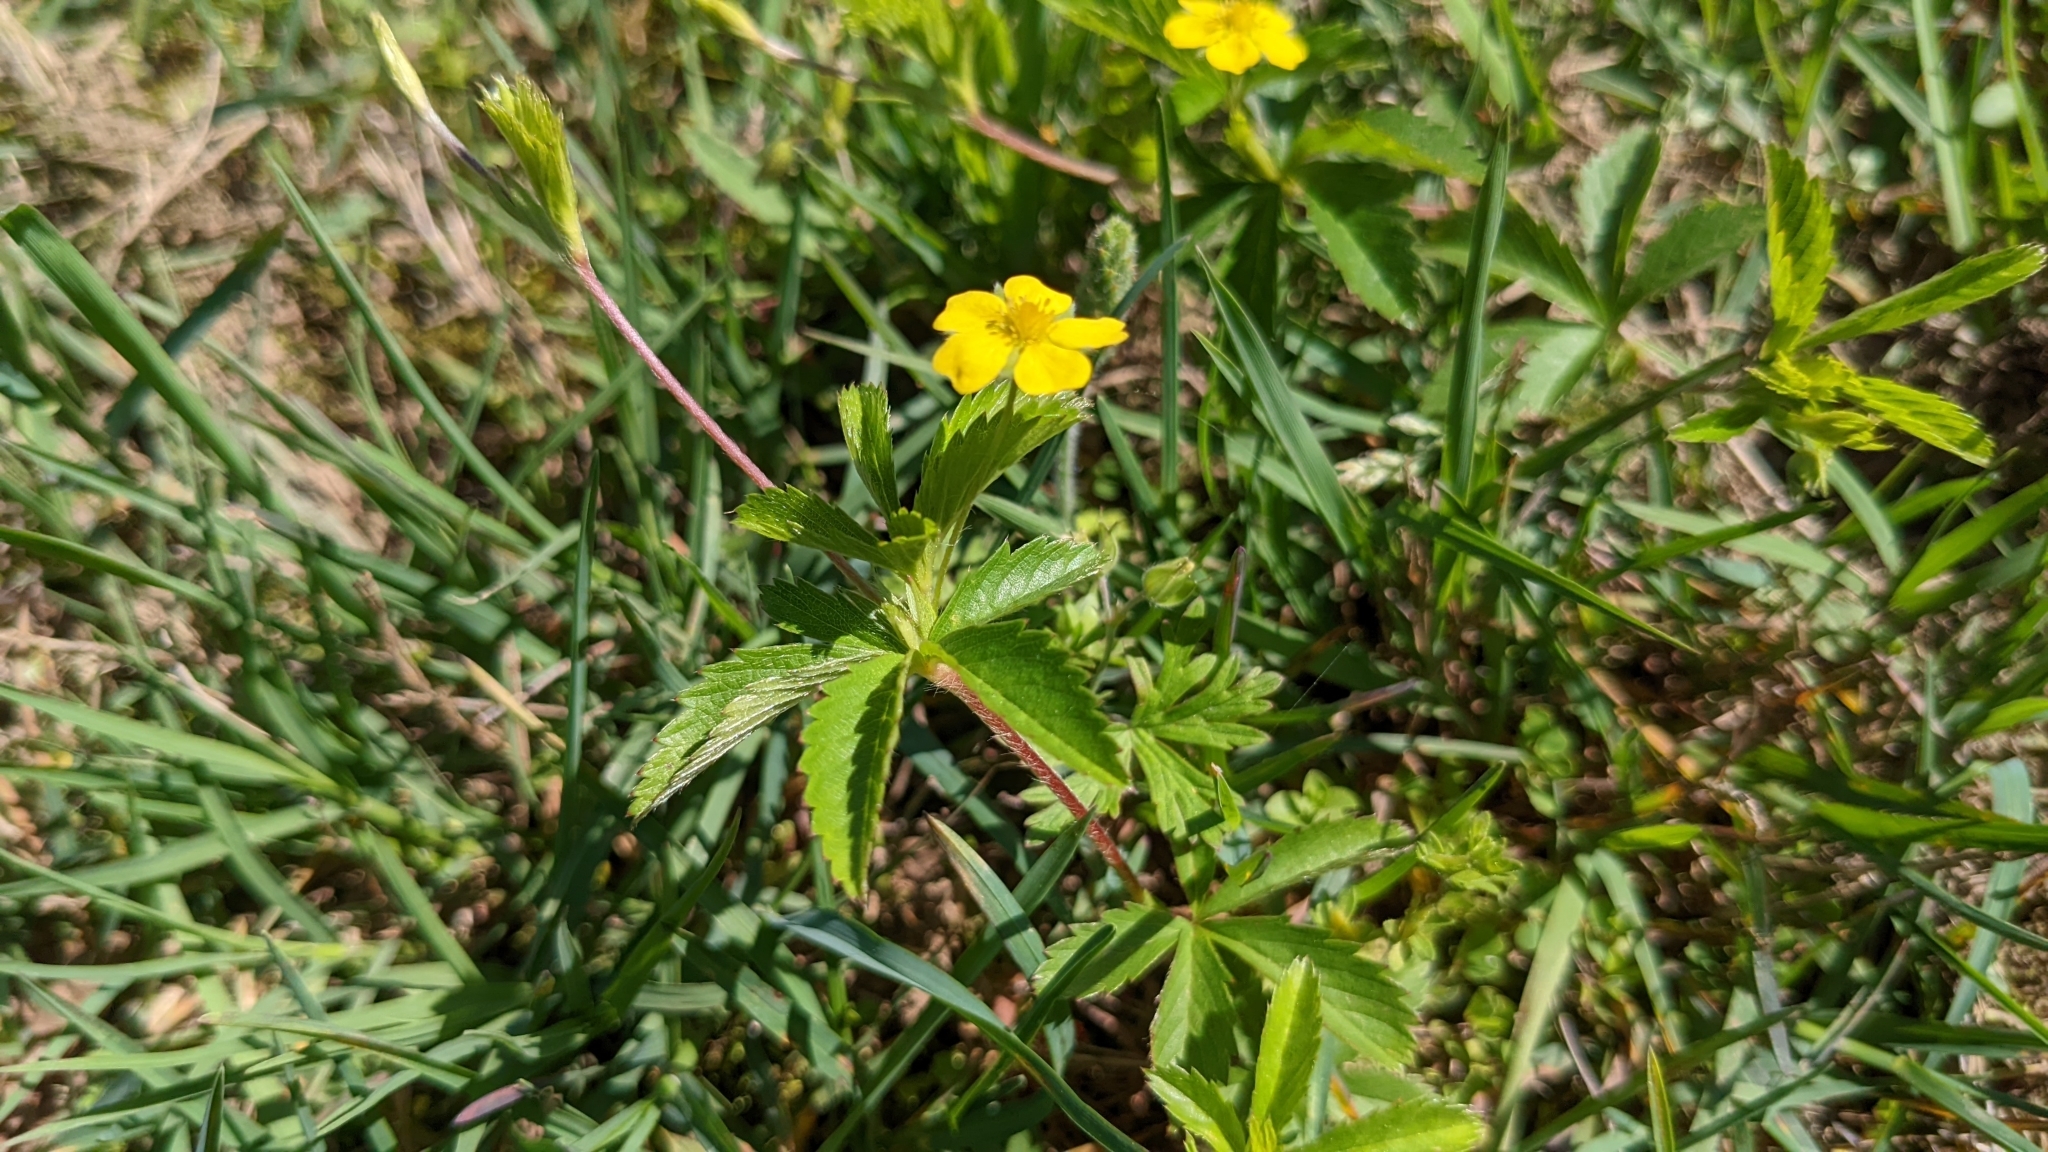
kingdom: Plantae
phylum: Tracheophyta
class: Magnoliopsida
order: Rosales
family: Rosaceae
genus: Potentilla
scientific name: Potentilla simplex
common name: Old field cinquefoil
